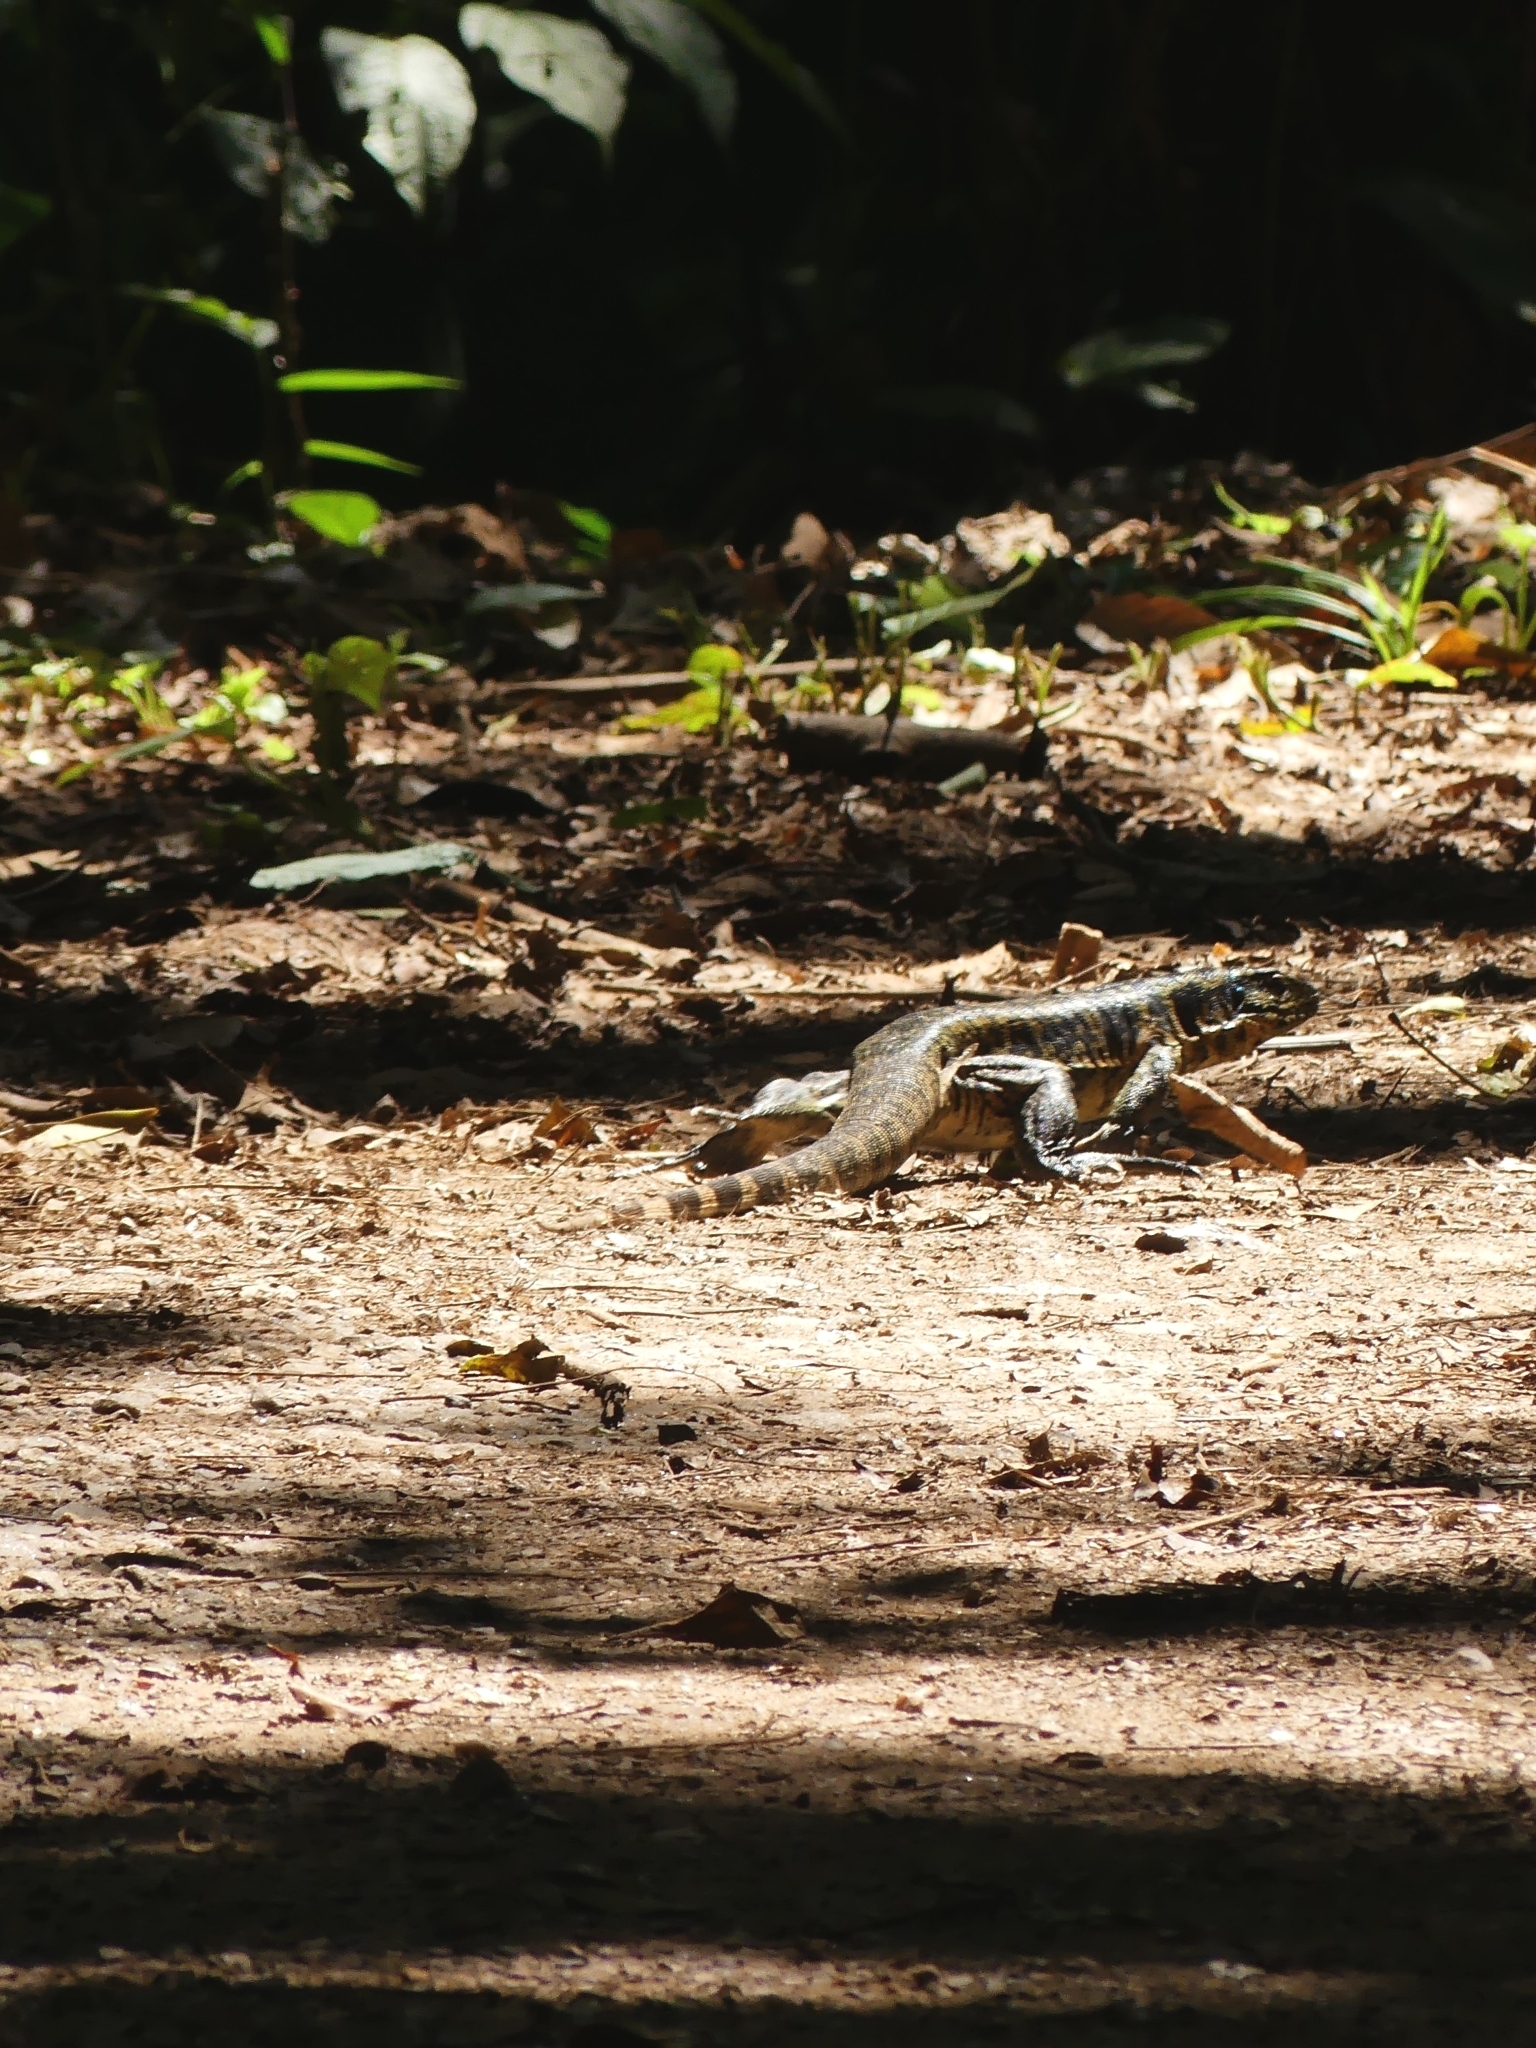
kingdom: Animalia
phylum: Chordata
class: Squamata
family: Teiidae
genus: Tupinambis
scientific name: Tupinambis teguixin
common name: Black tegu
